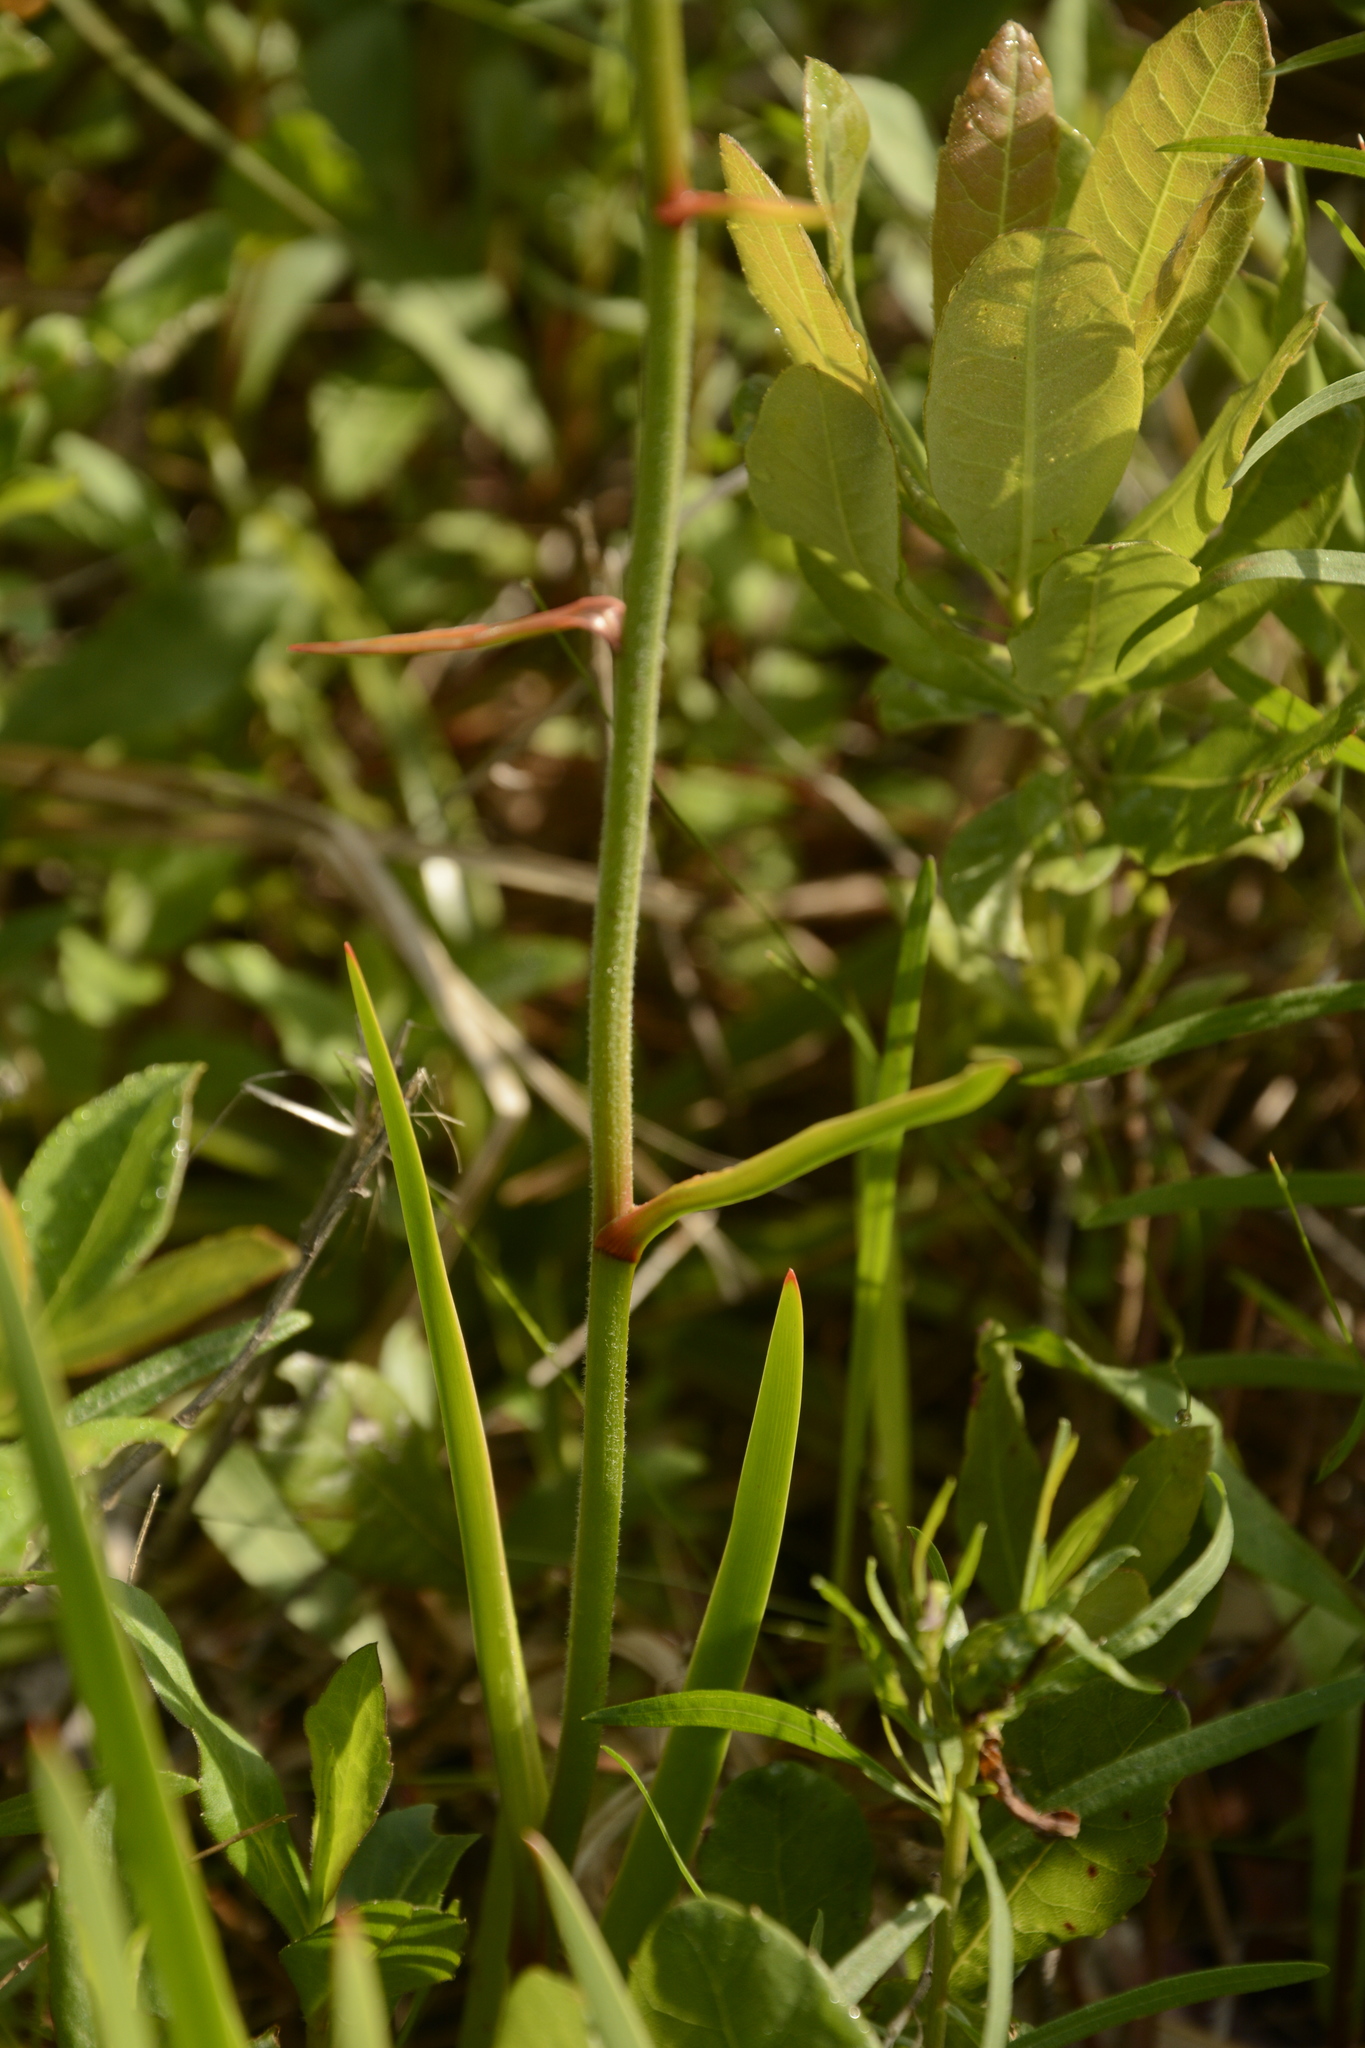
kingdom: Plantae
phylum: Tracheophyta
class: Liliopsida
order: Dioscoreales
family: Nartheciaceae
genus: Lophiola
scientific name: Lophiola aurea
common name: Golden-crest
